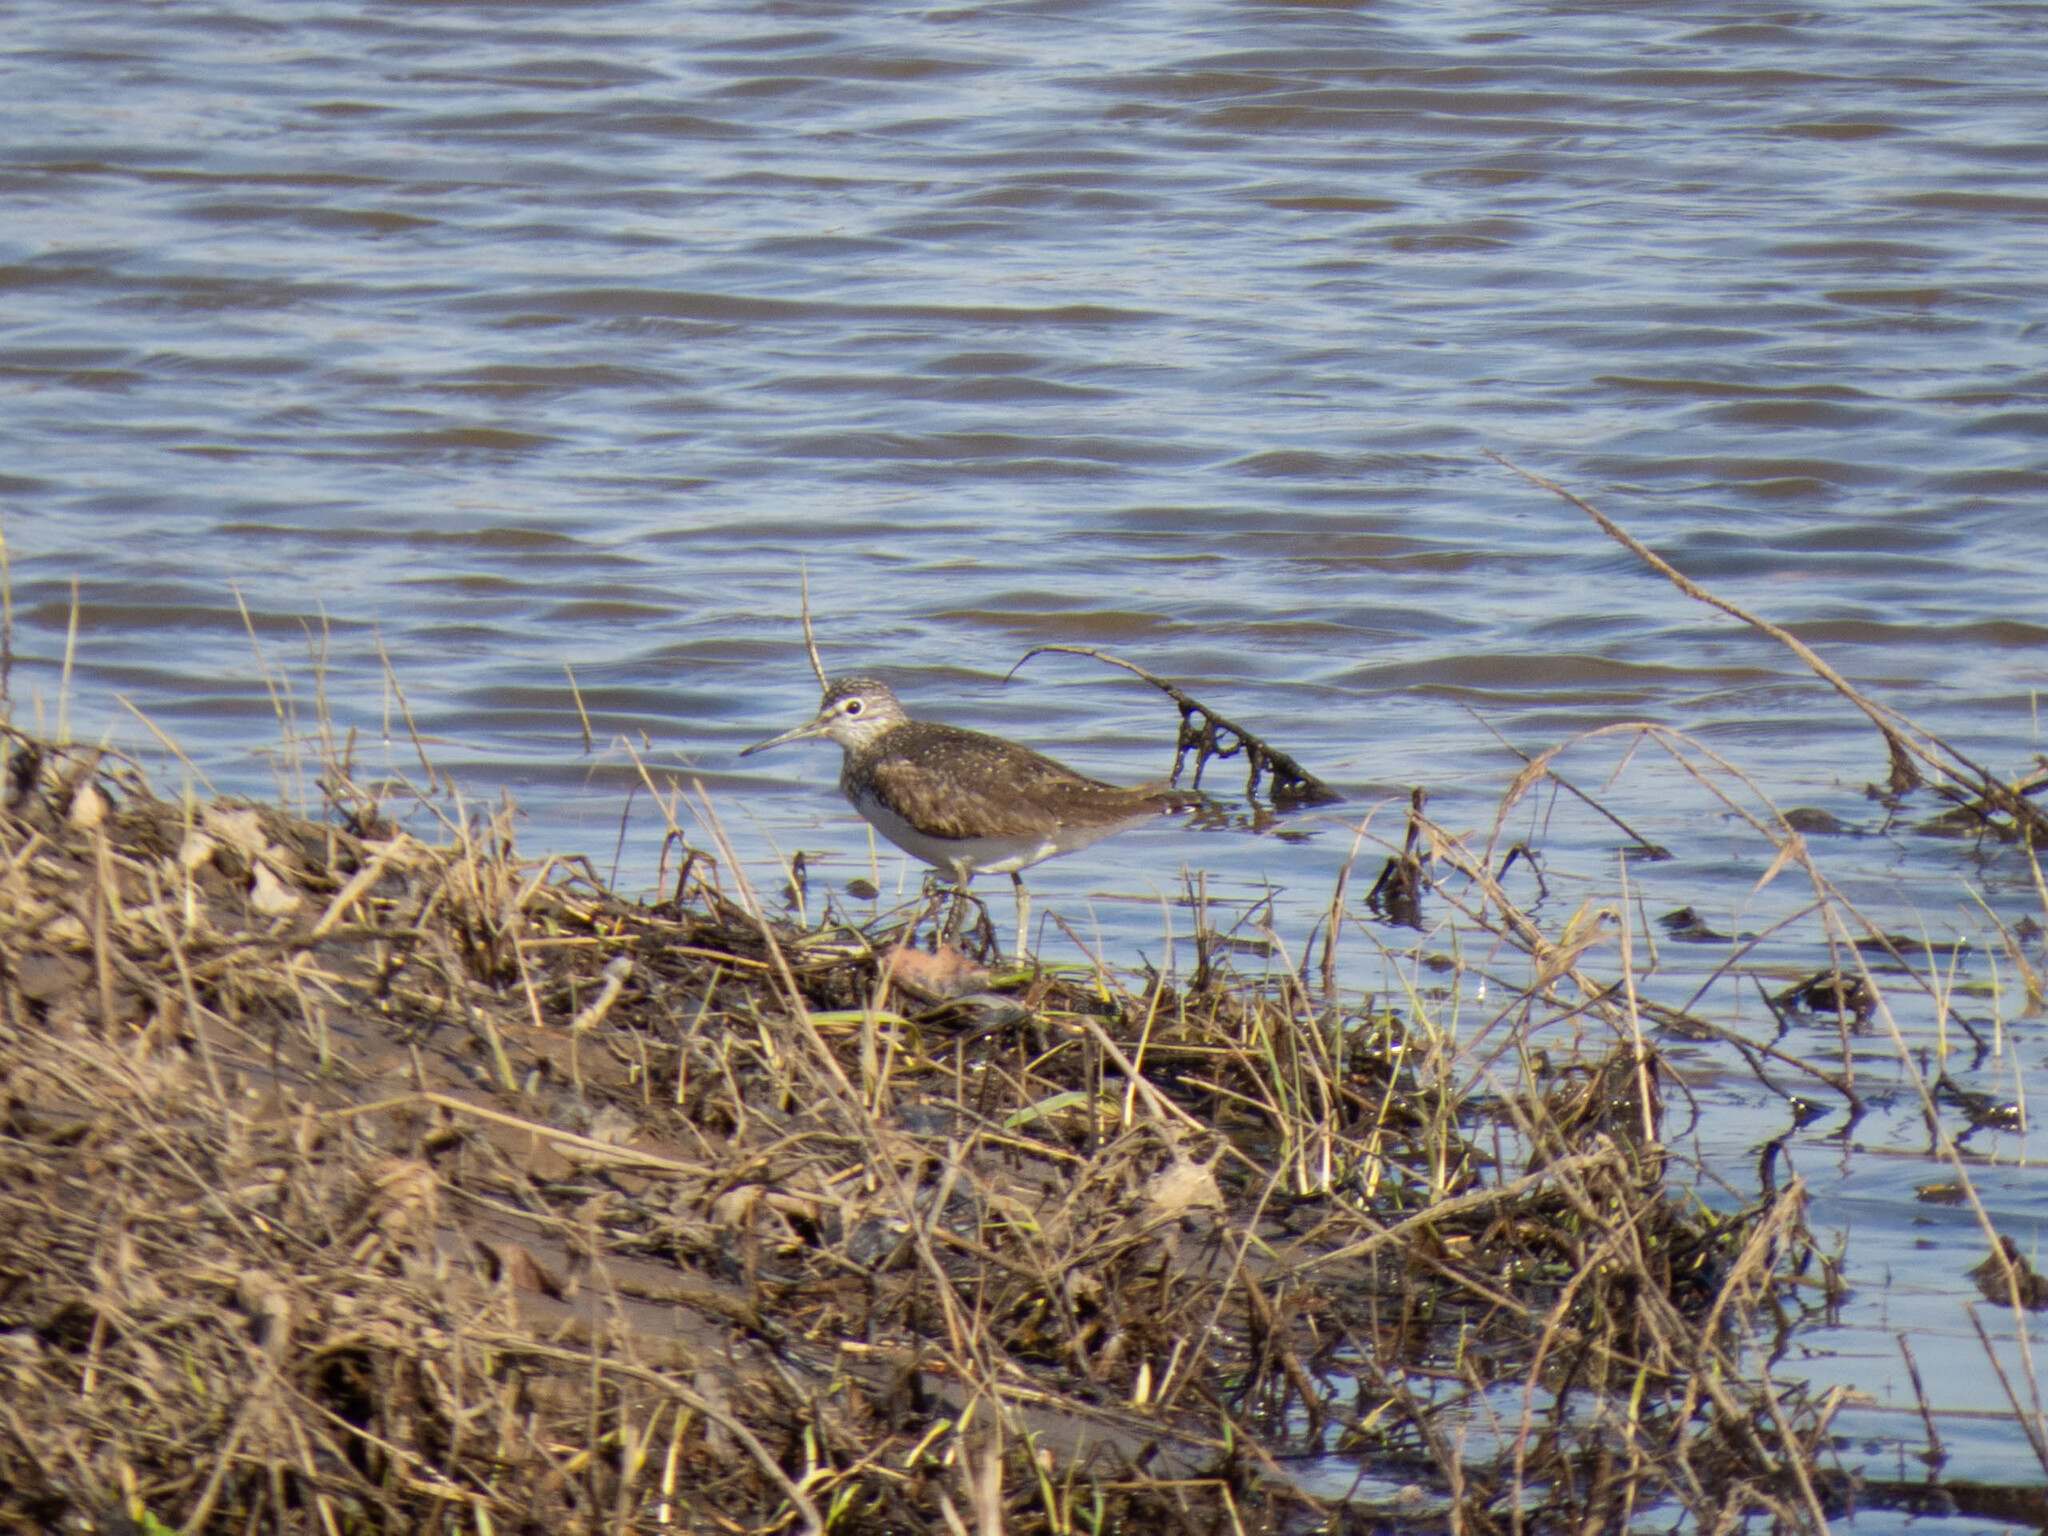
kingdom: Animalia
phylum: Chordata
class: Aves
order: Charadriiformes
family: Scolopacidae
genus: Tringa
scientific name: Tringa ochropus
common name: Green sandpiper
